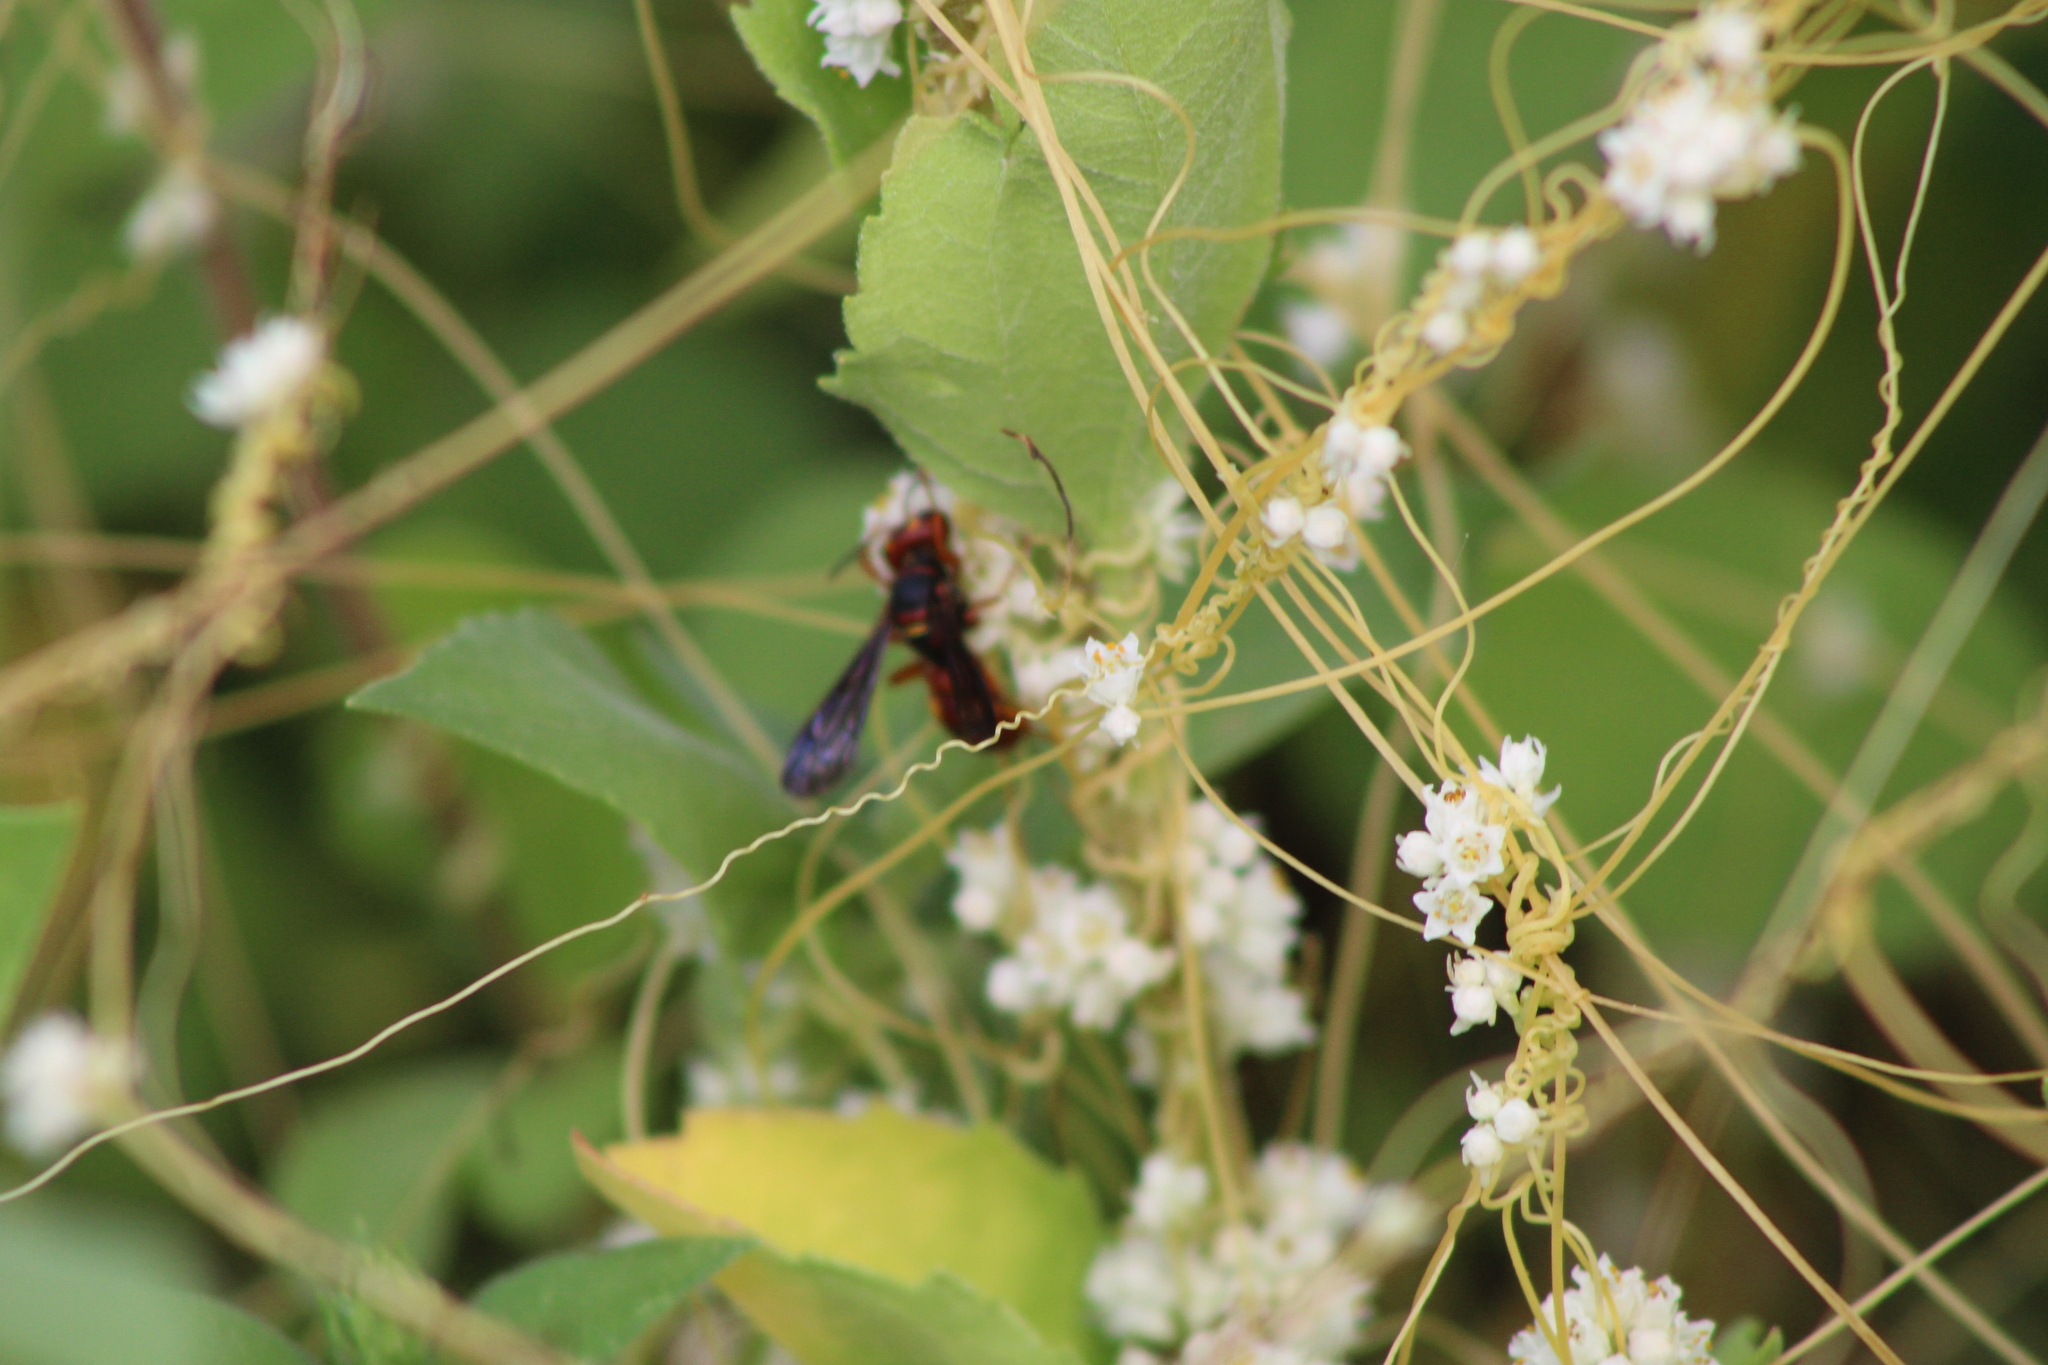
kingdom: Animalia
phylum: Arthropoda
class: Insecta
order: Hymenoptera
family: Crabronidae
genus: Cerceris
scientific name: Cerceris bicornuta
